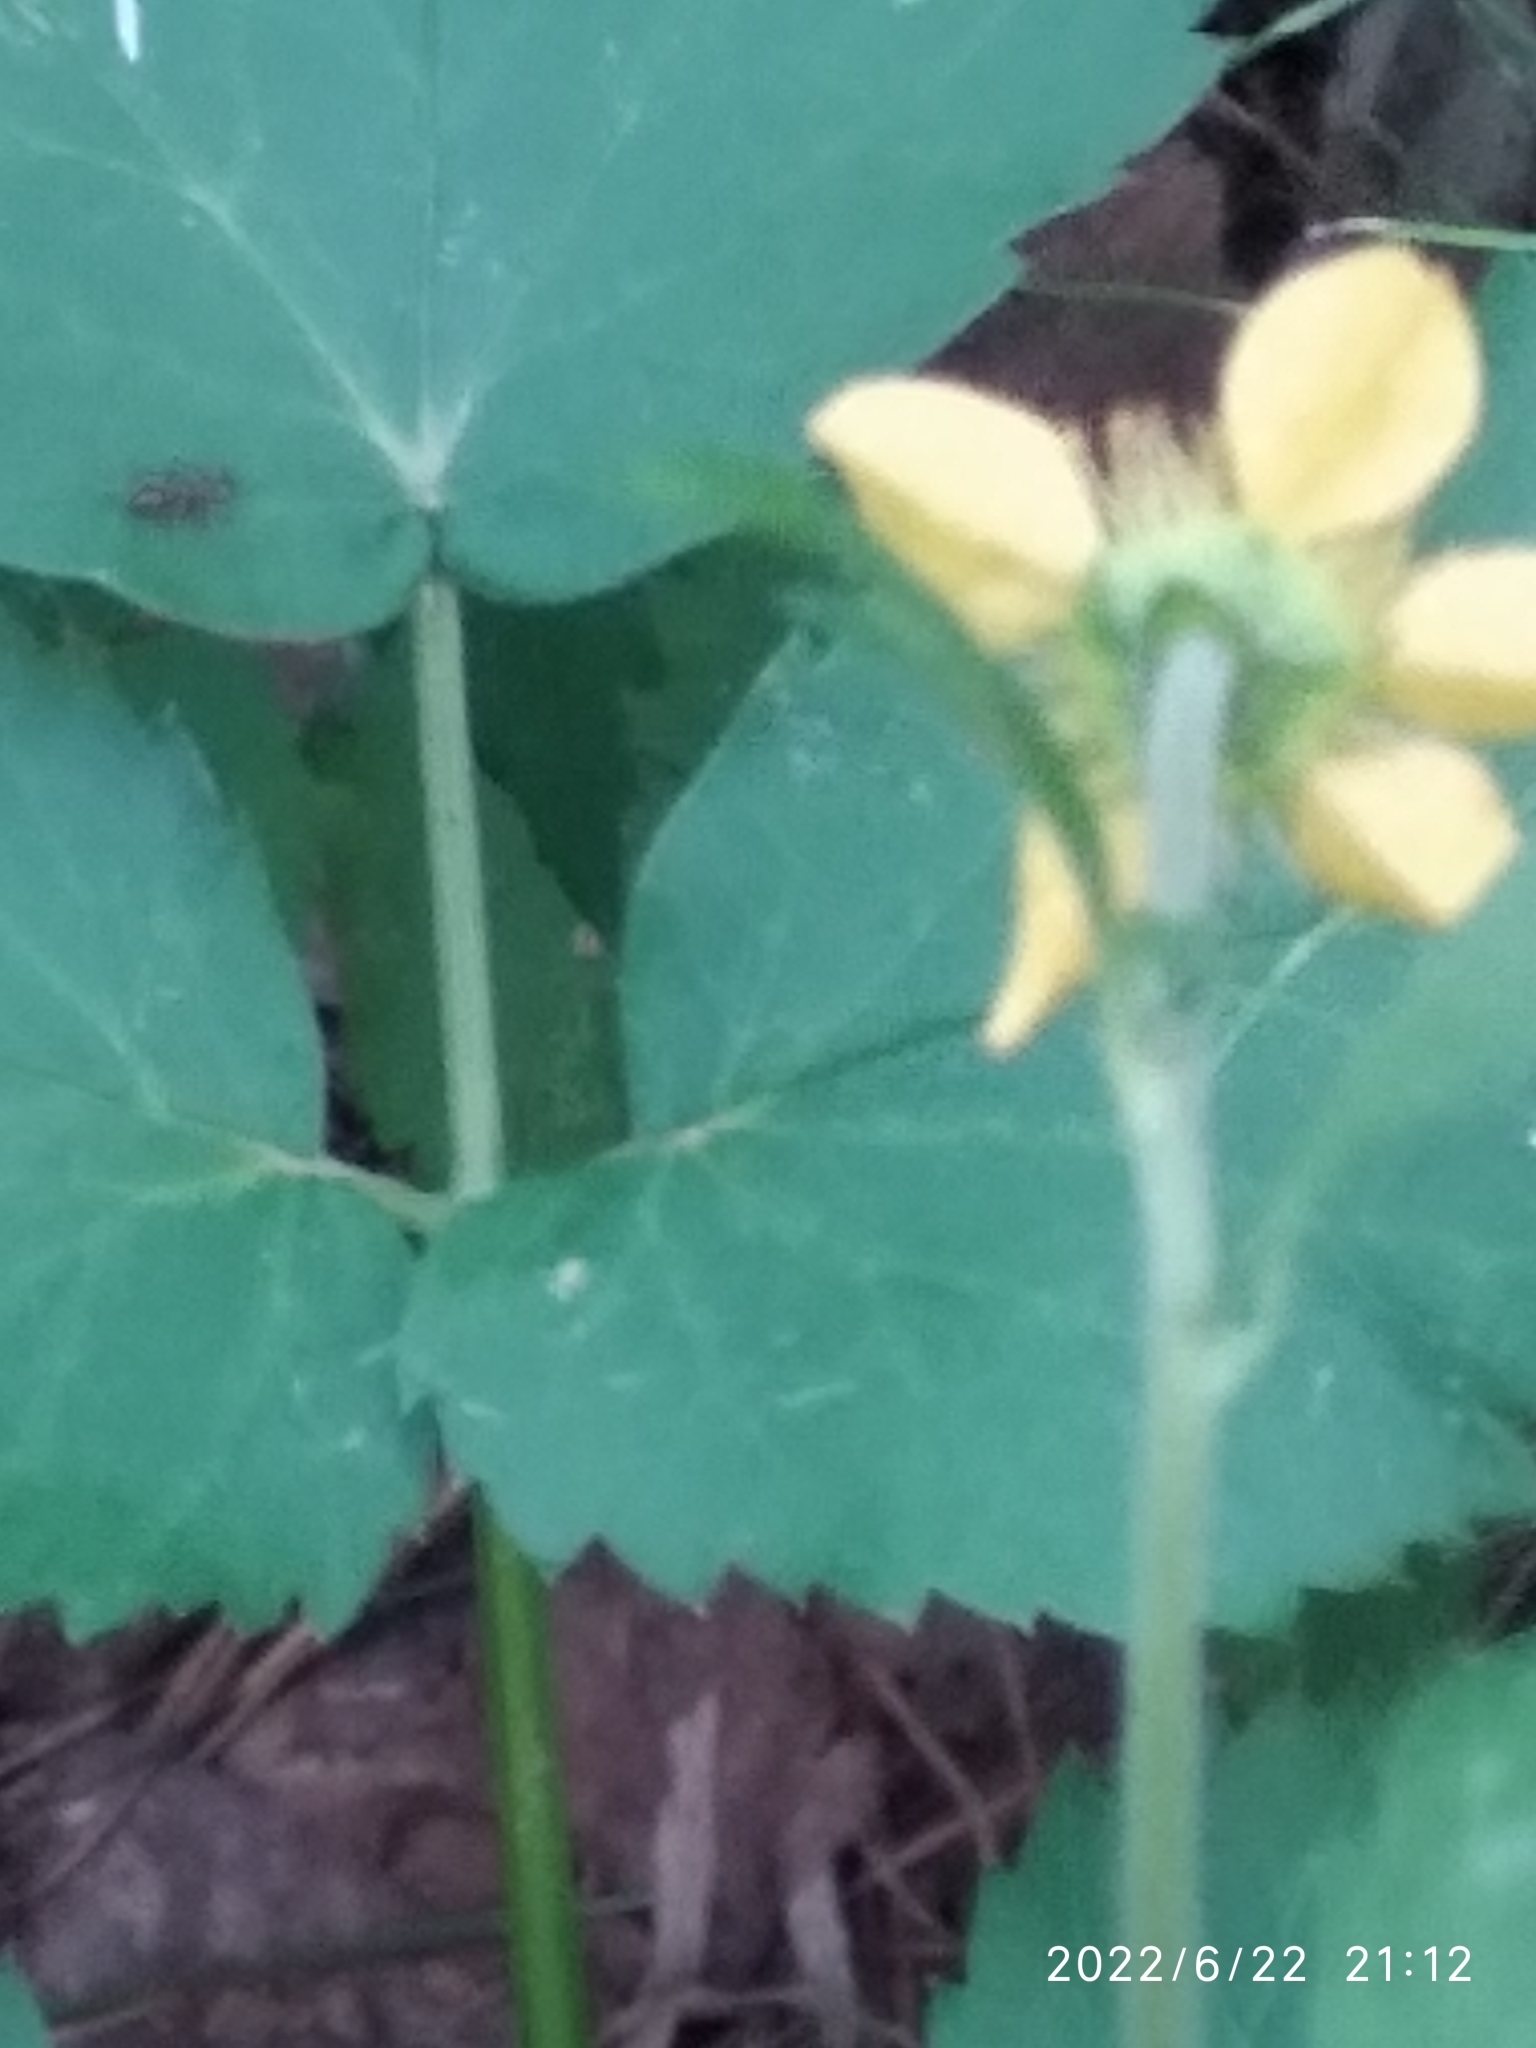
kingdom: Plantae
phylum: Tracheophyta
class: Magnoliopsida
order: Rosales
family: Rosaceae
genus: Geum
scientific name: Geum intermedium
